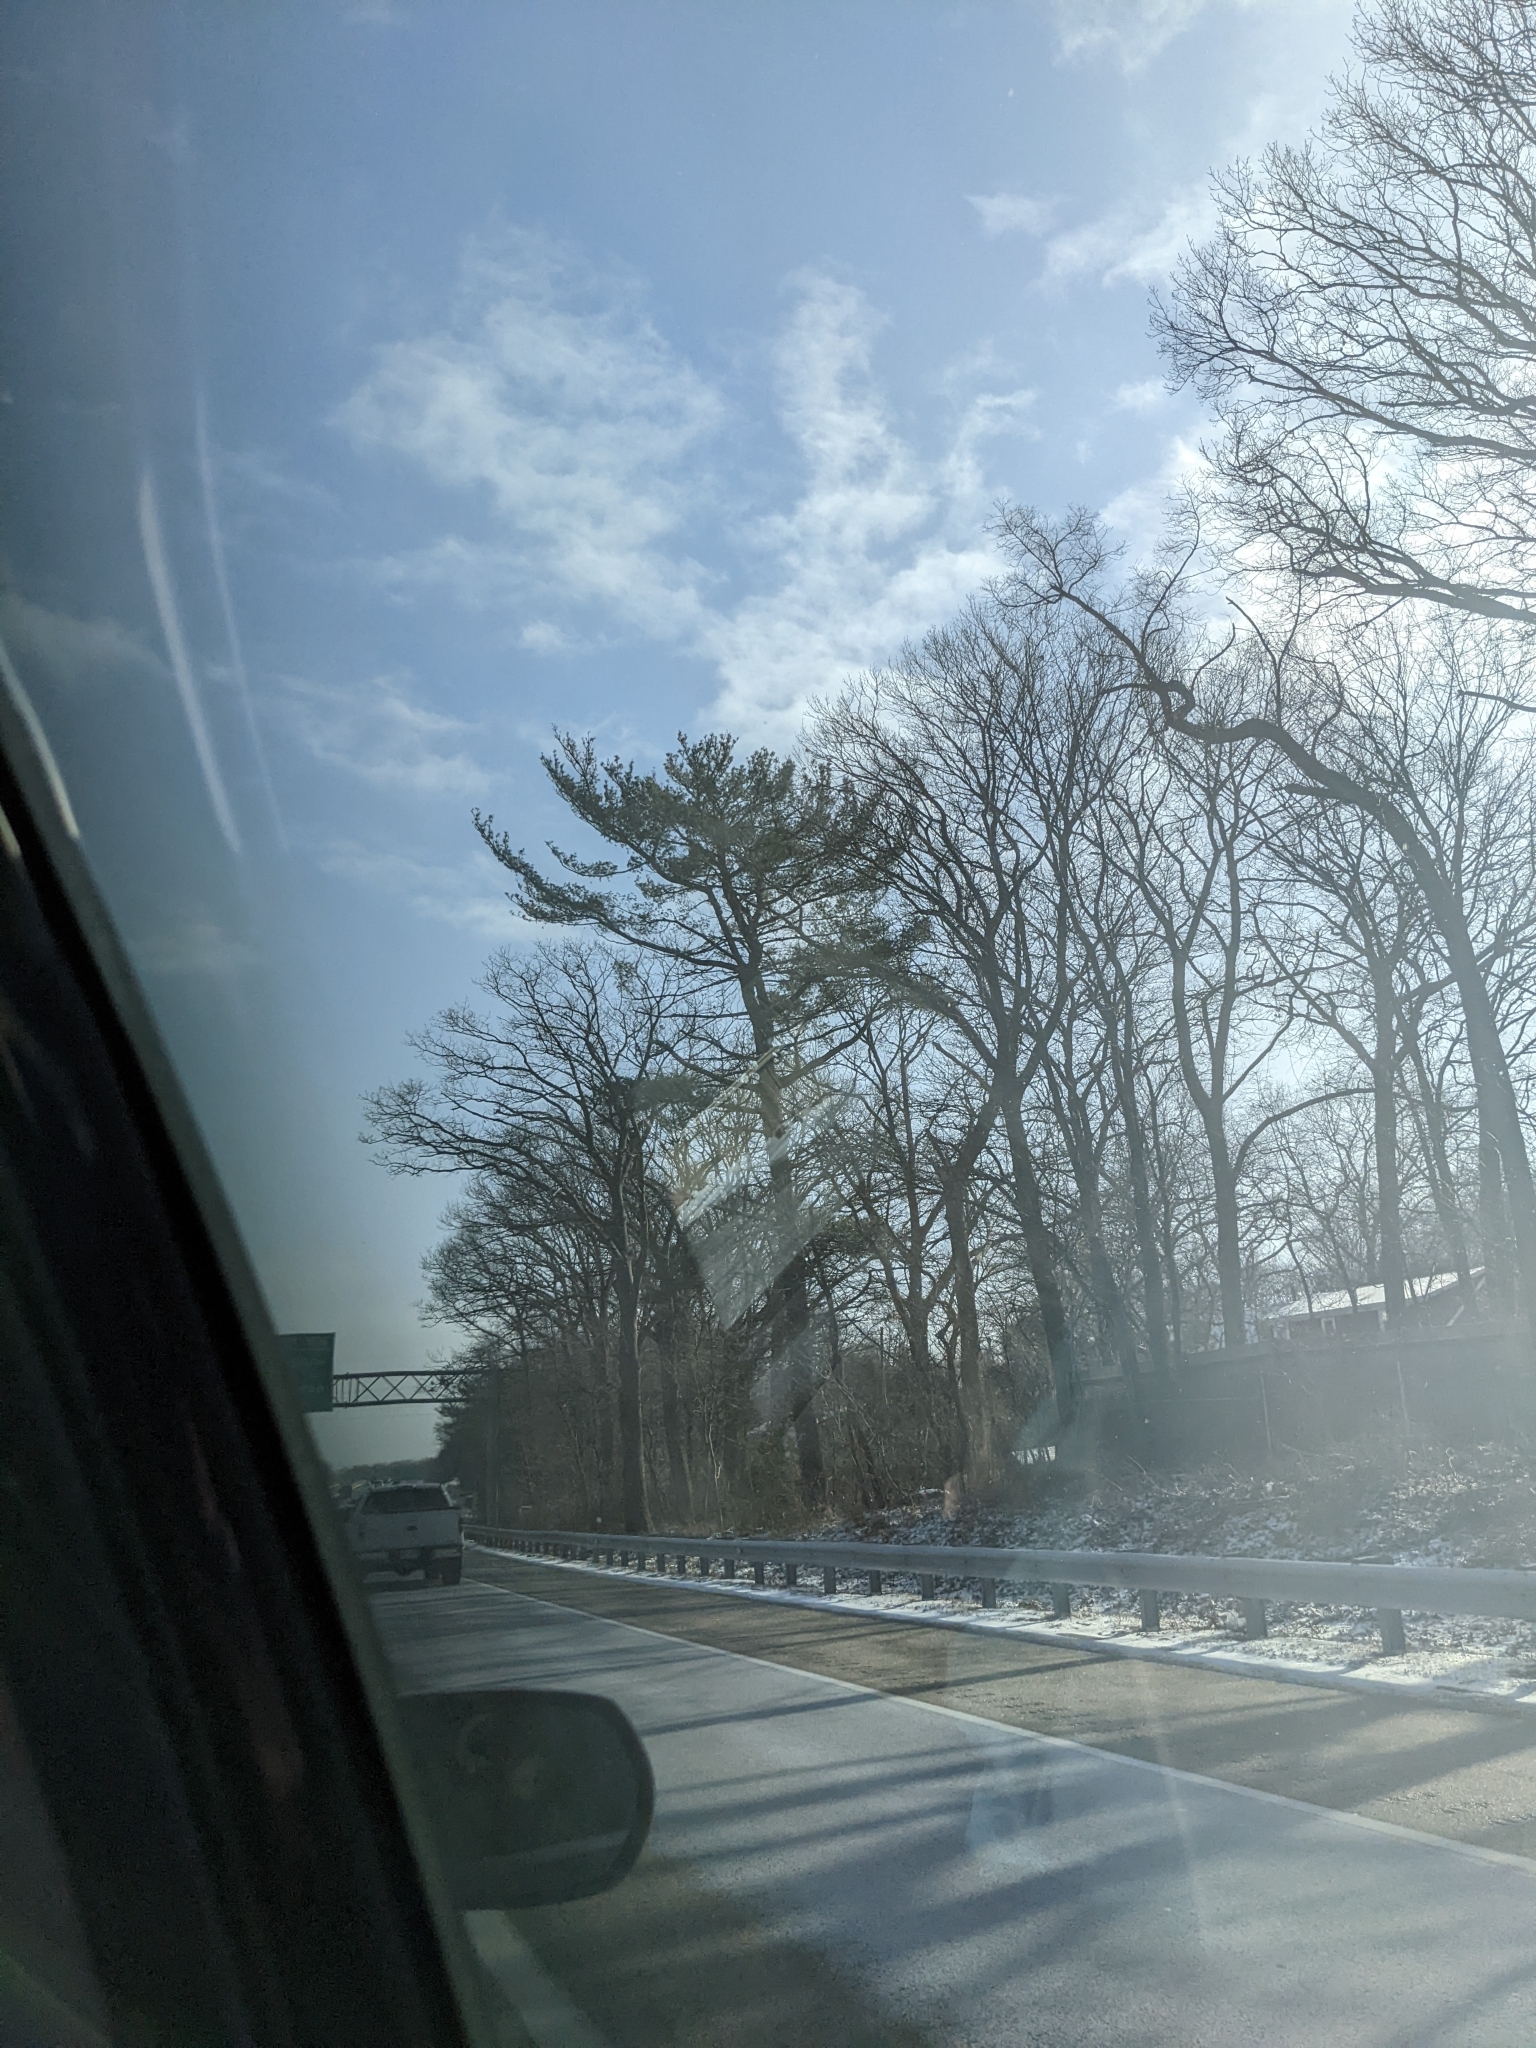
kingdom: Plantae
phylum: Tracheophyta
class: Pinopsida
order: Pinales
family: Pinaceae
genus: Pinus
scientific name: Pinus strobus
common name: Weymouth pine
